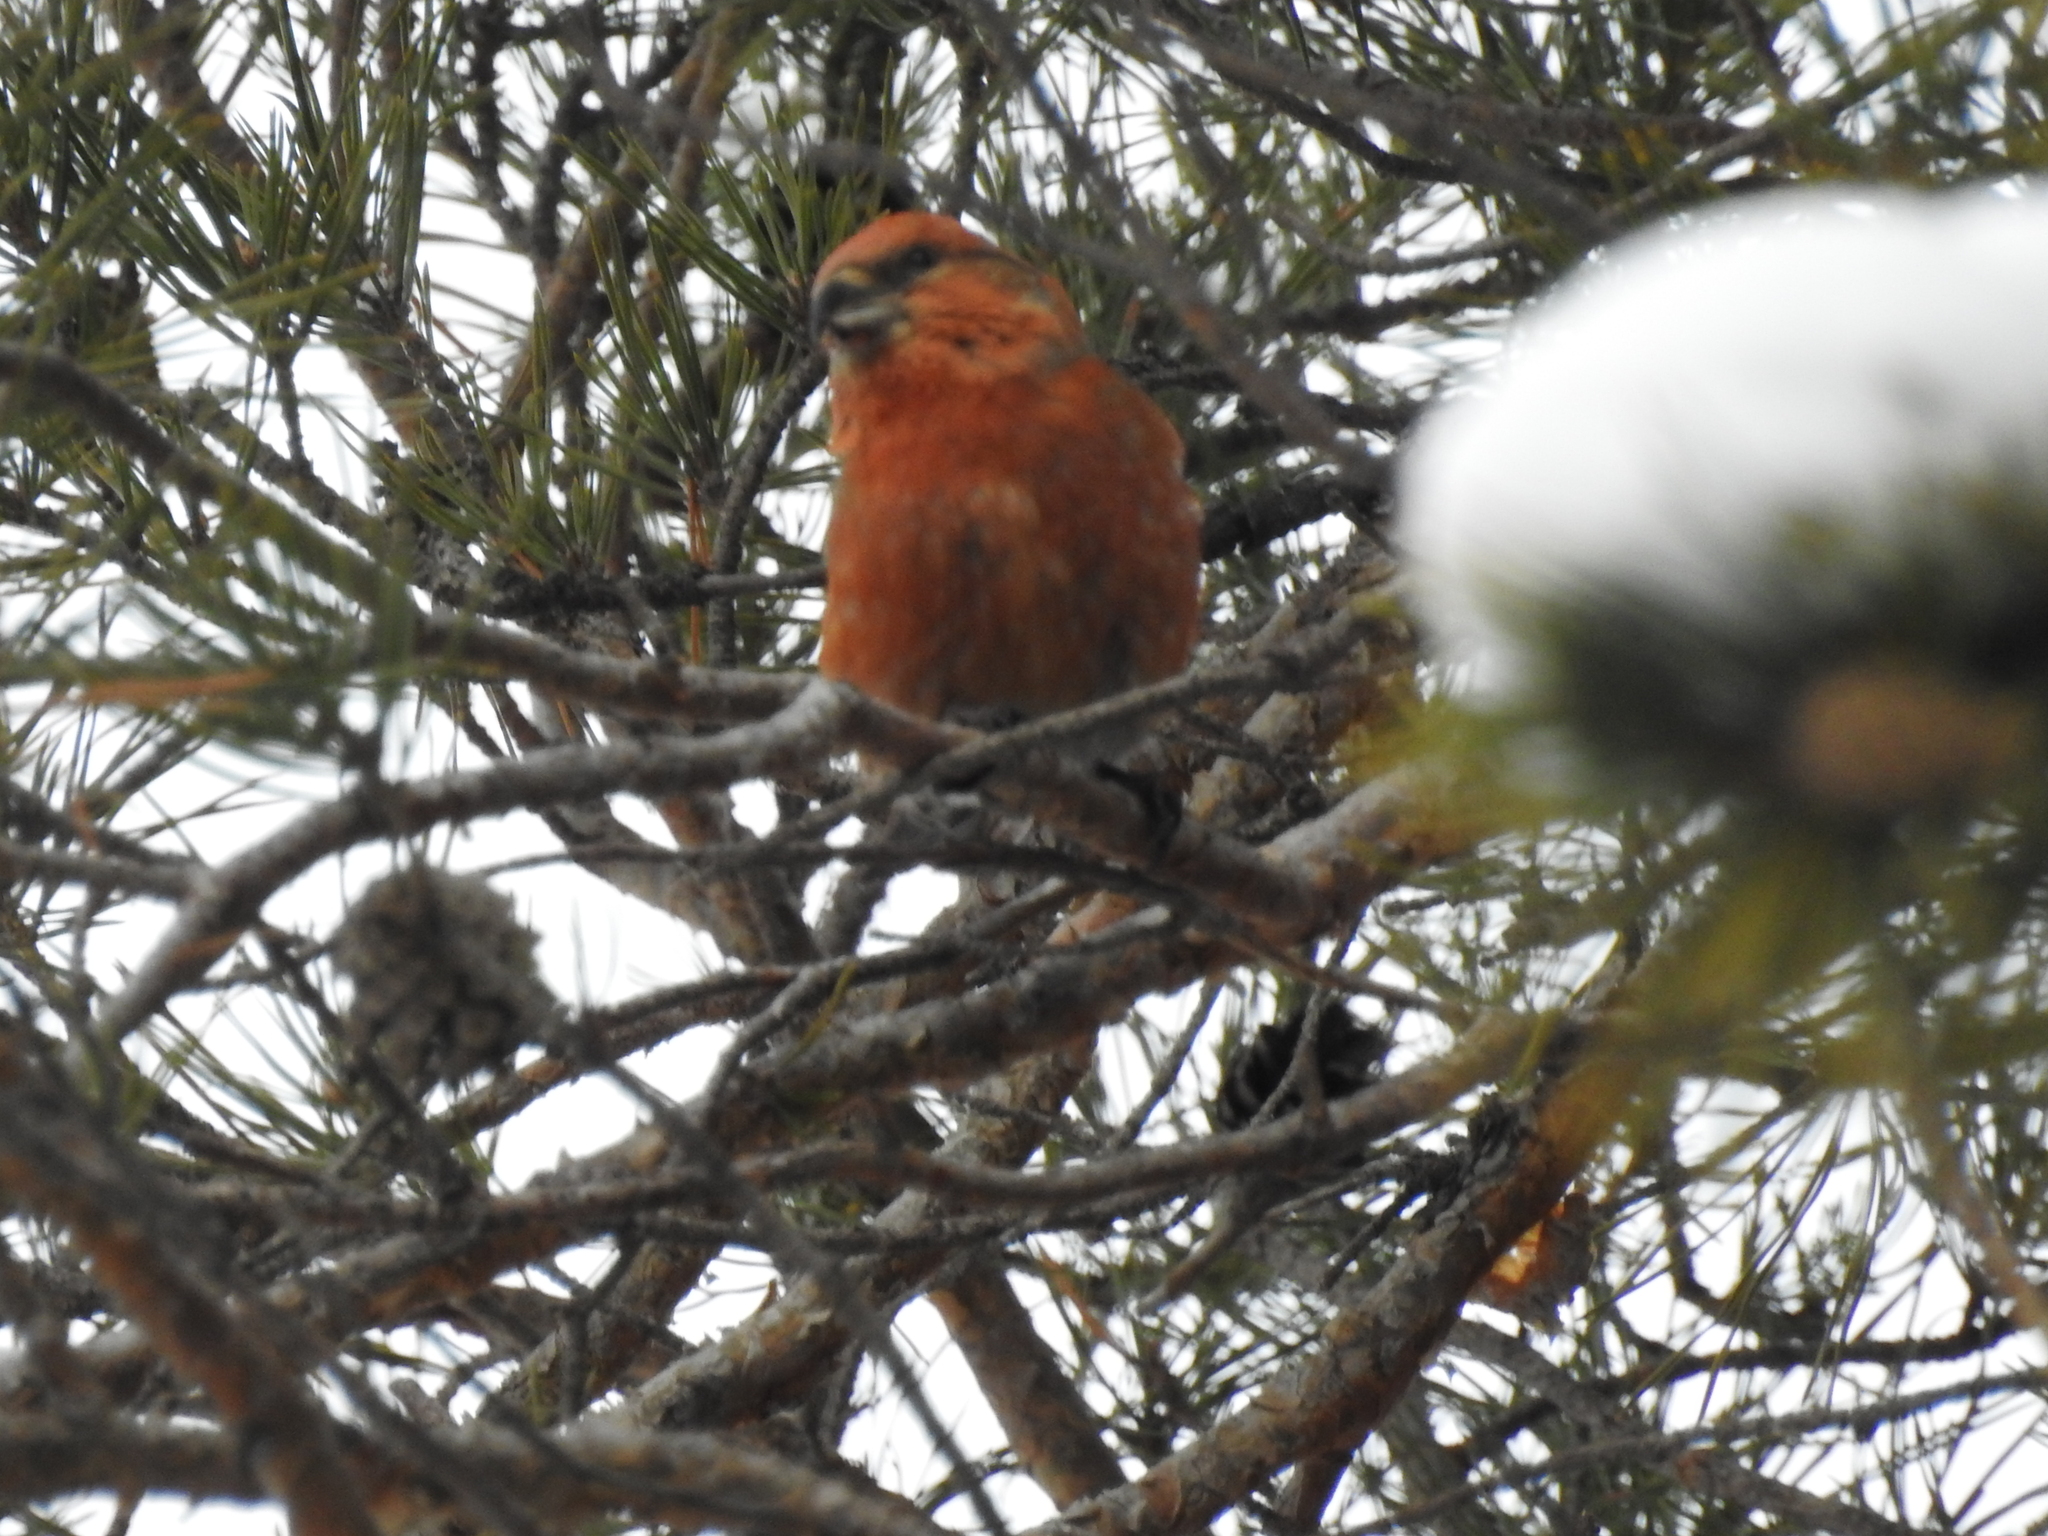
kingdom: Animalia
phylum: Chordata
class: Aves
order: Passeriformes
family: Fringillidae
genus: Loxia
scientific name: Loxia curvirostra
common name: Red crossbill
